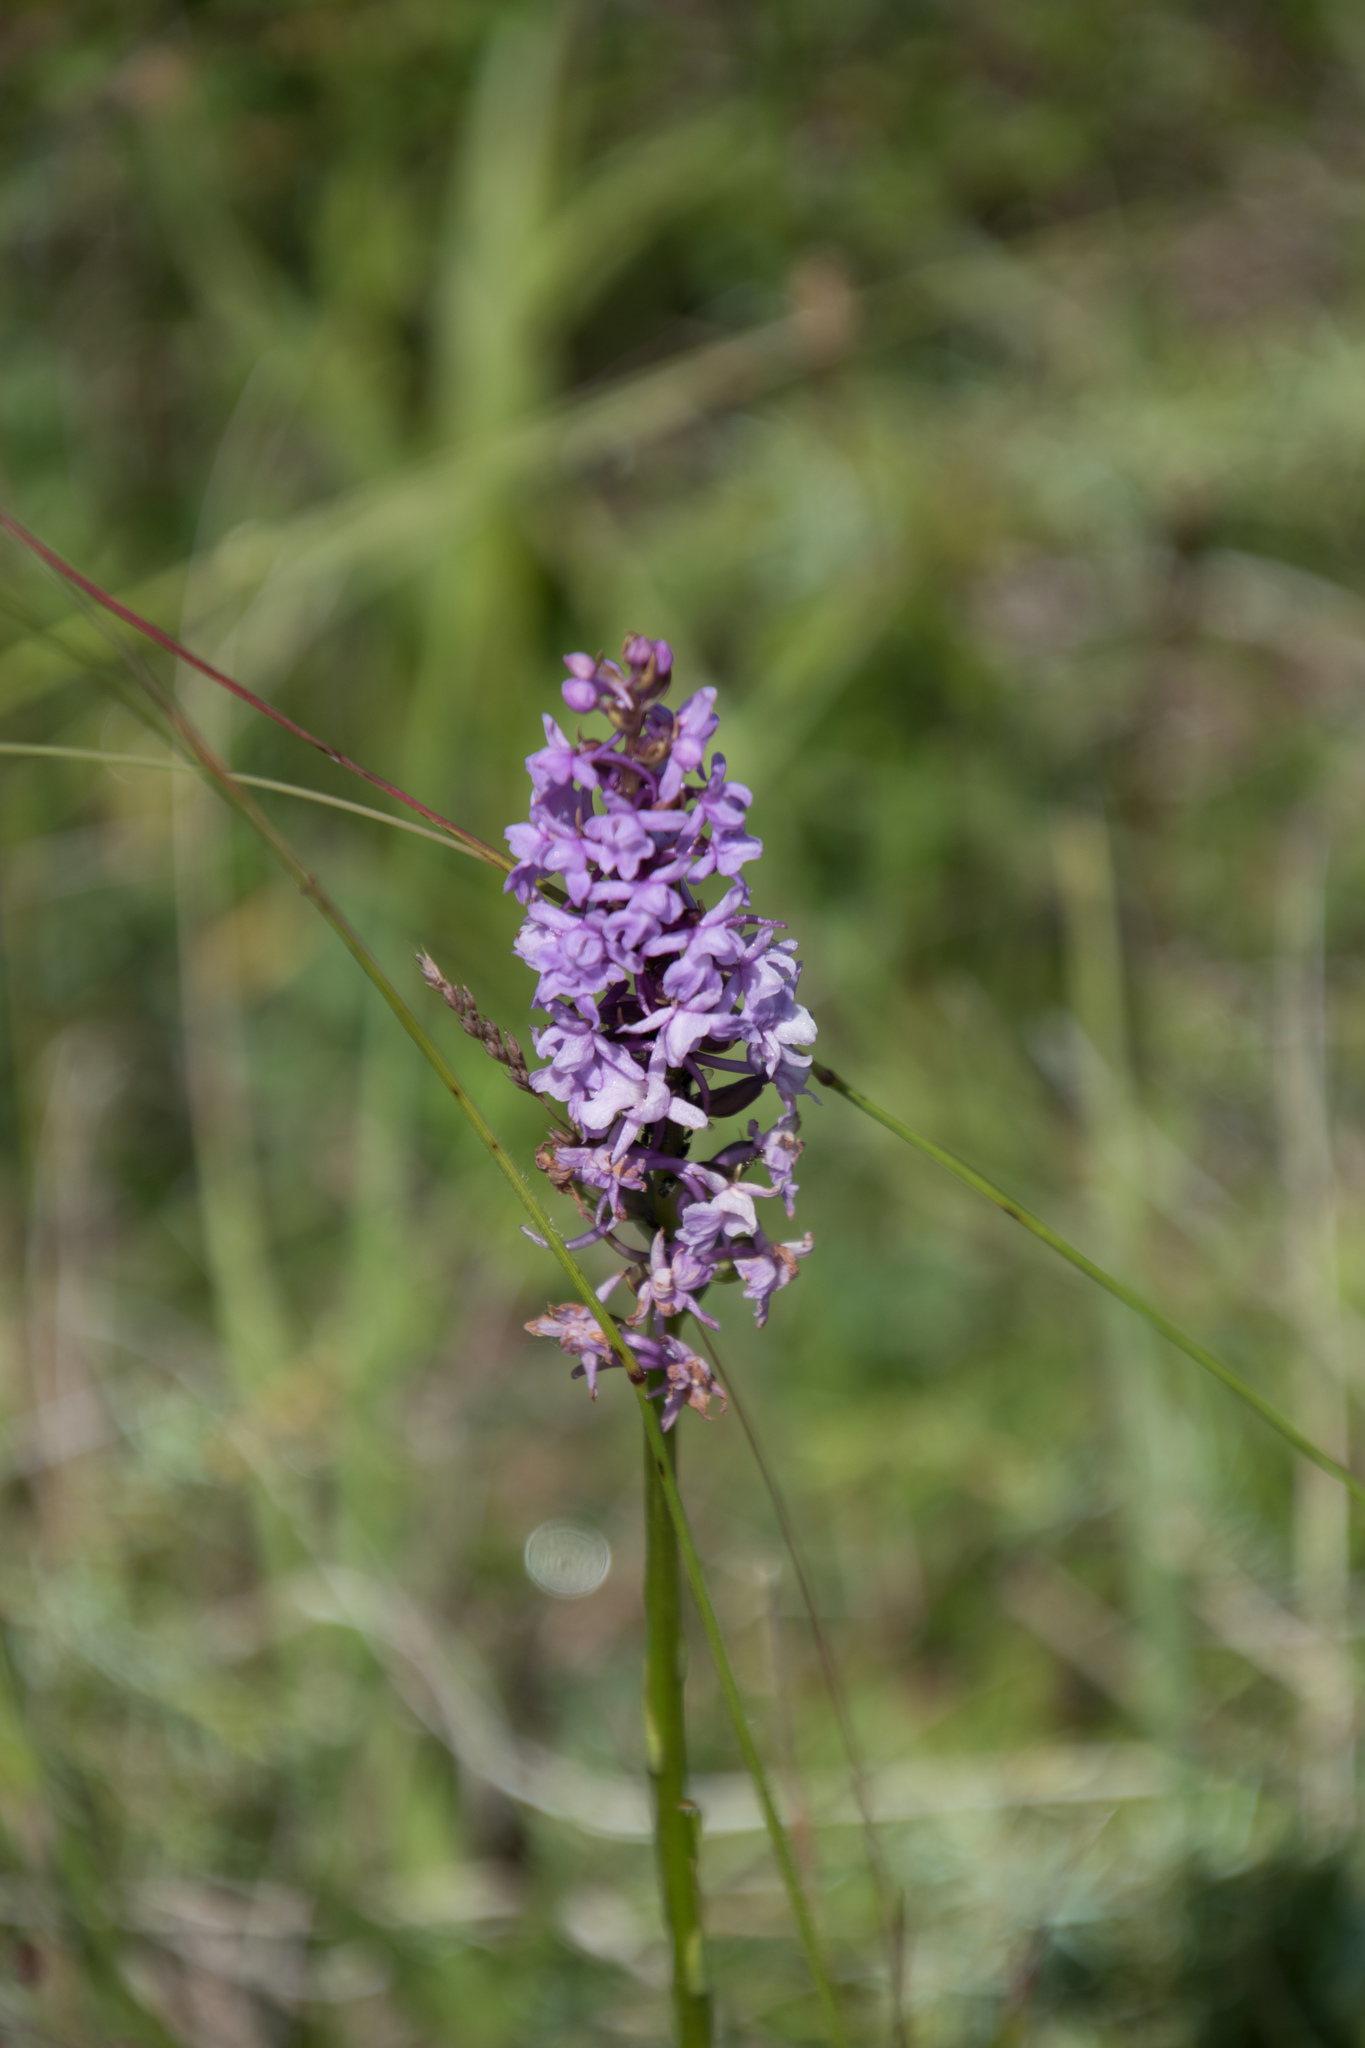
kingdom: Plantae
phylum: Tracheophyta
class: Liliopsida
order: Asparagales
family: Orchidaceae
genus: Gymnadenia
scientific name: Gymnadenia conopsea
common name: Fragrant orchid
